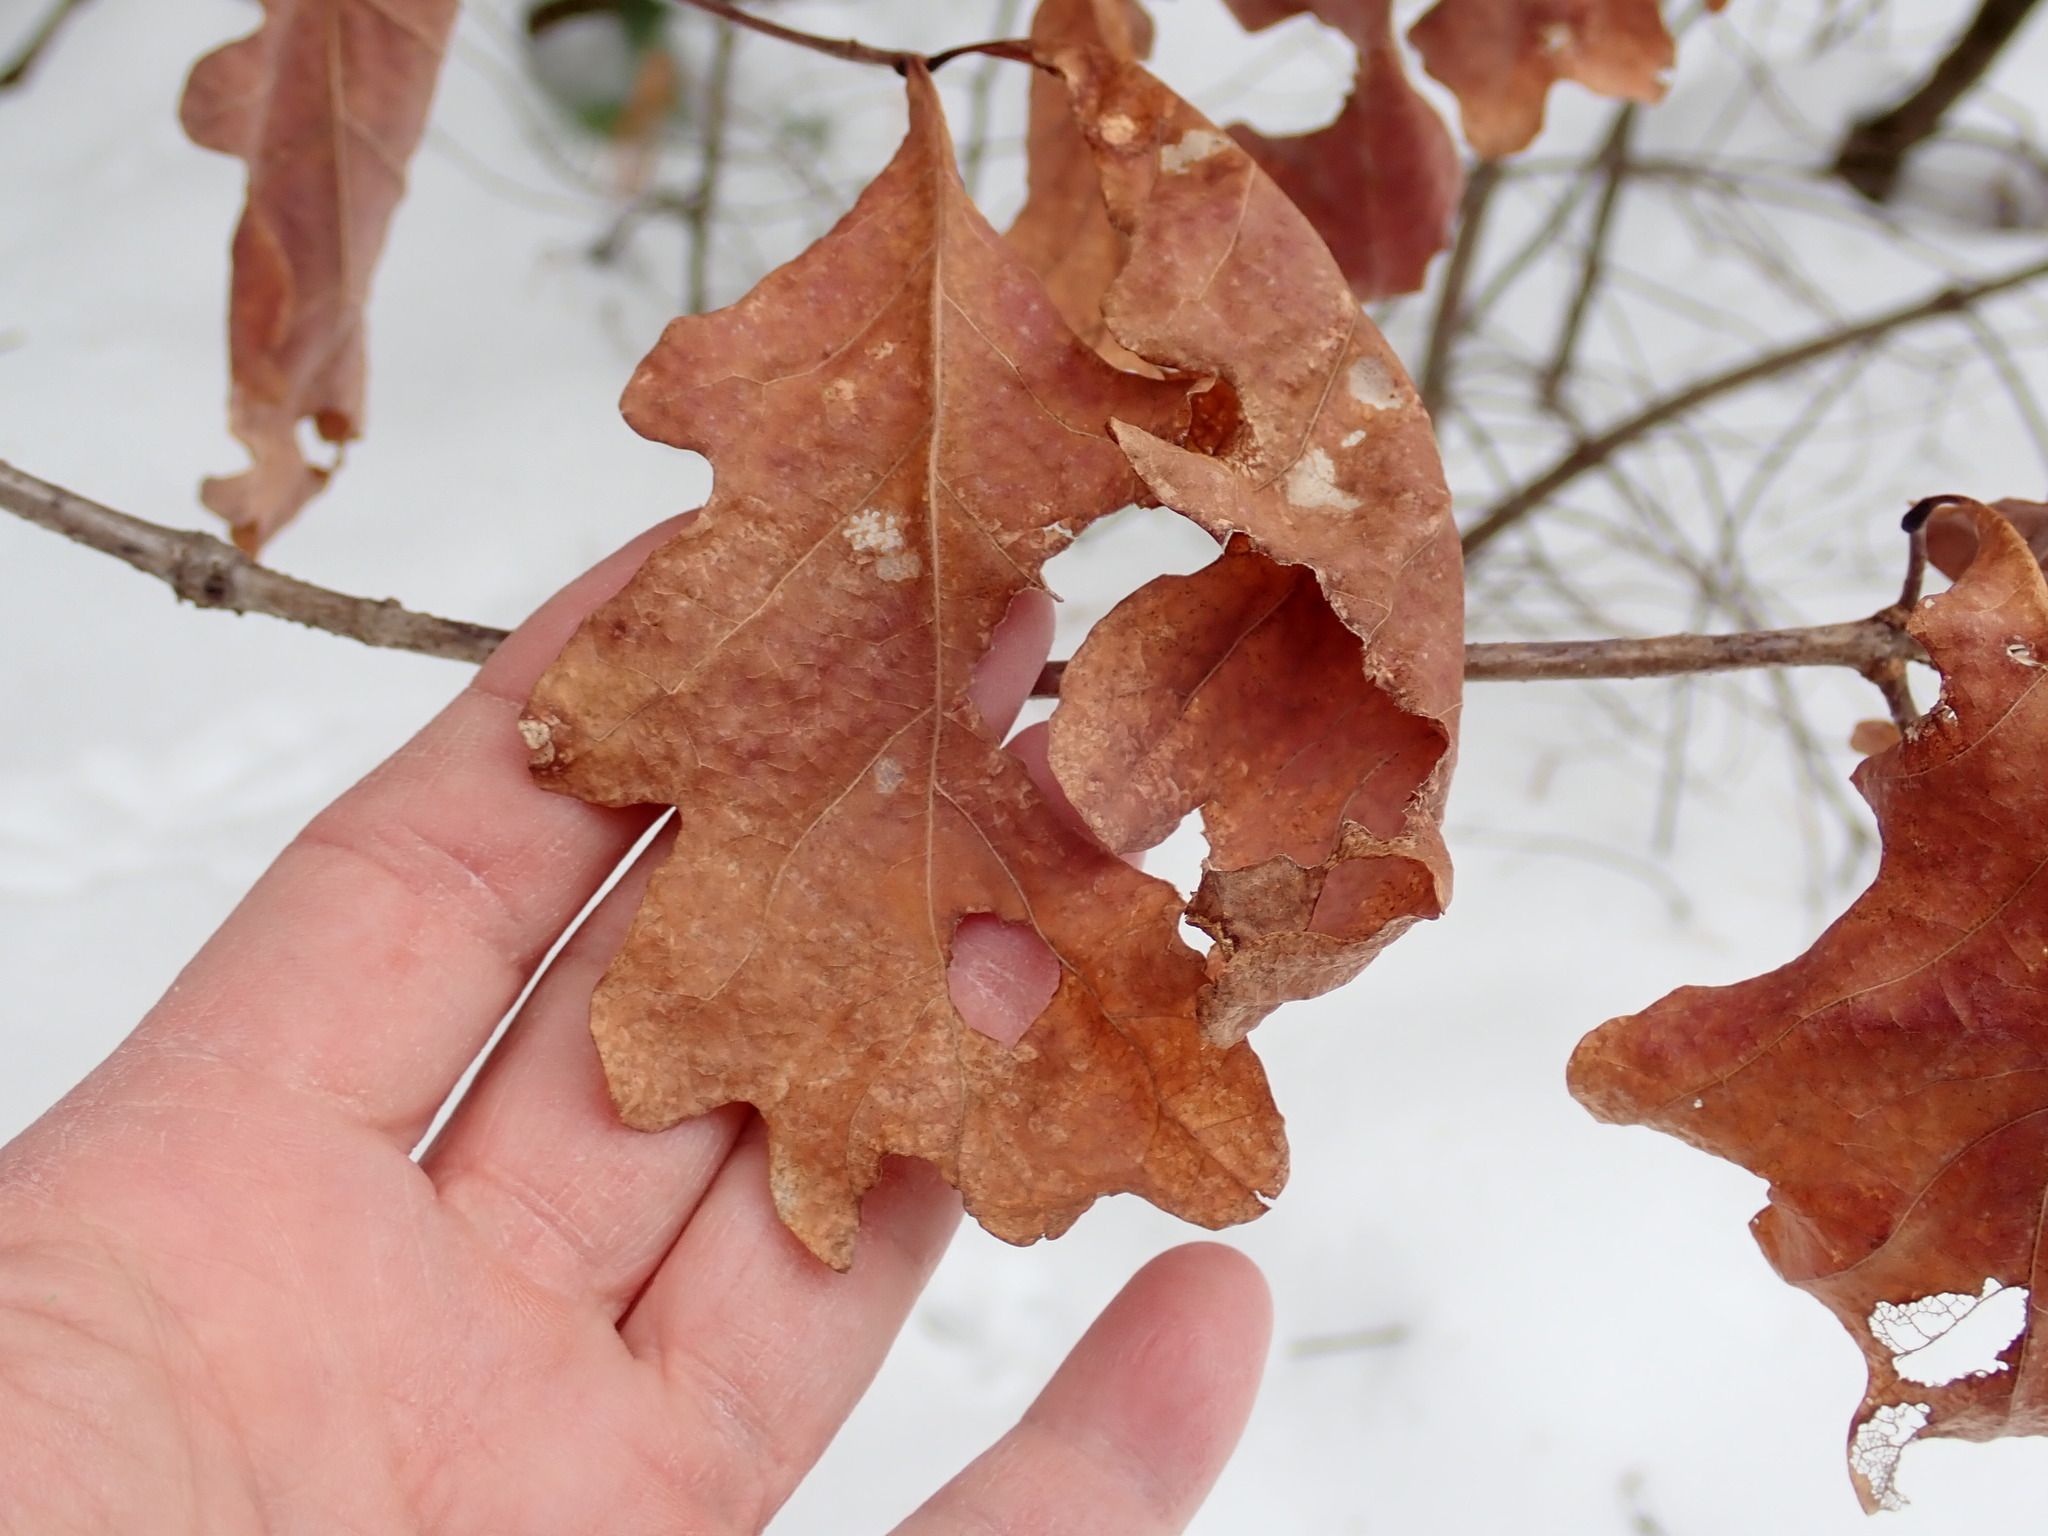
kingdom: Animalia
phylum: Arthropoda
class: Insecta
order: Hymenoptera
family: Cynipidae
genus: Callirhytis
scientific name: Callirhytis clavula
